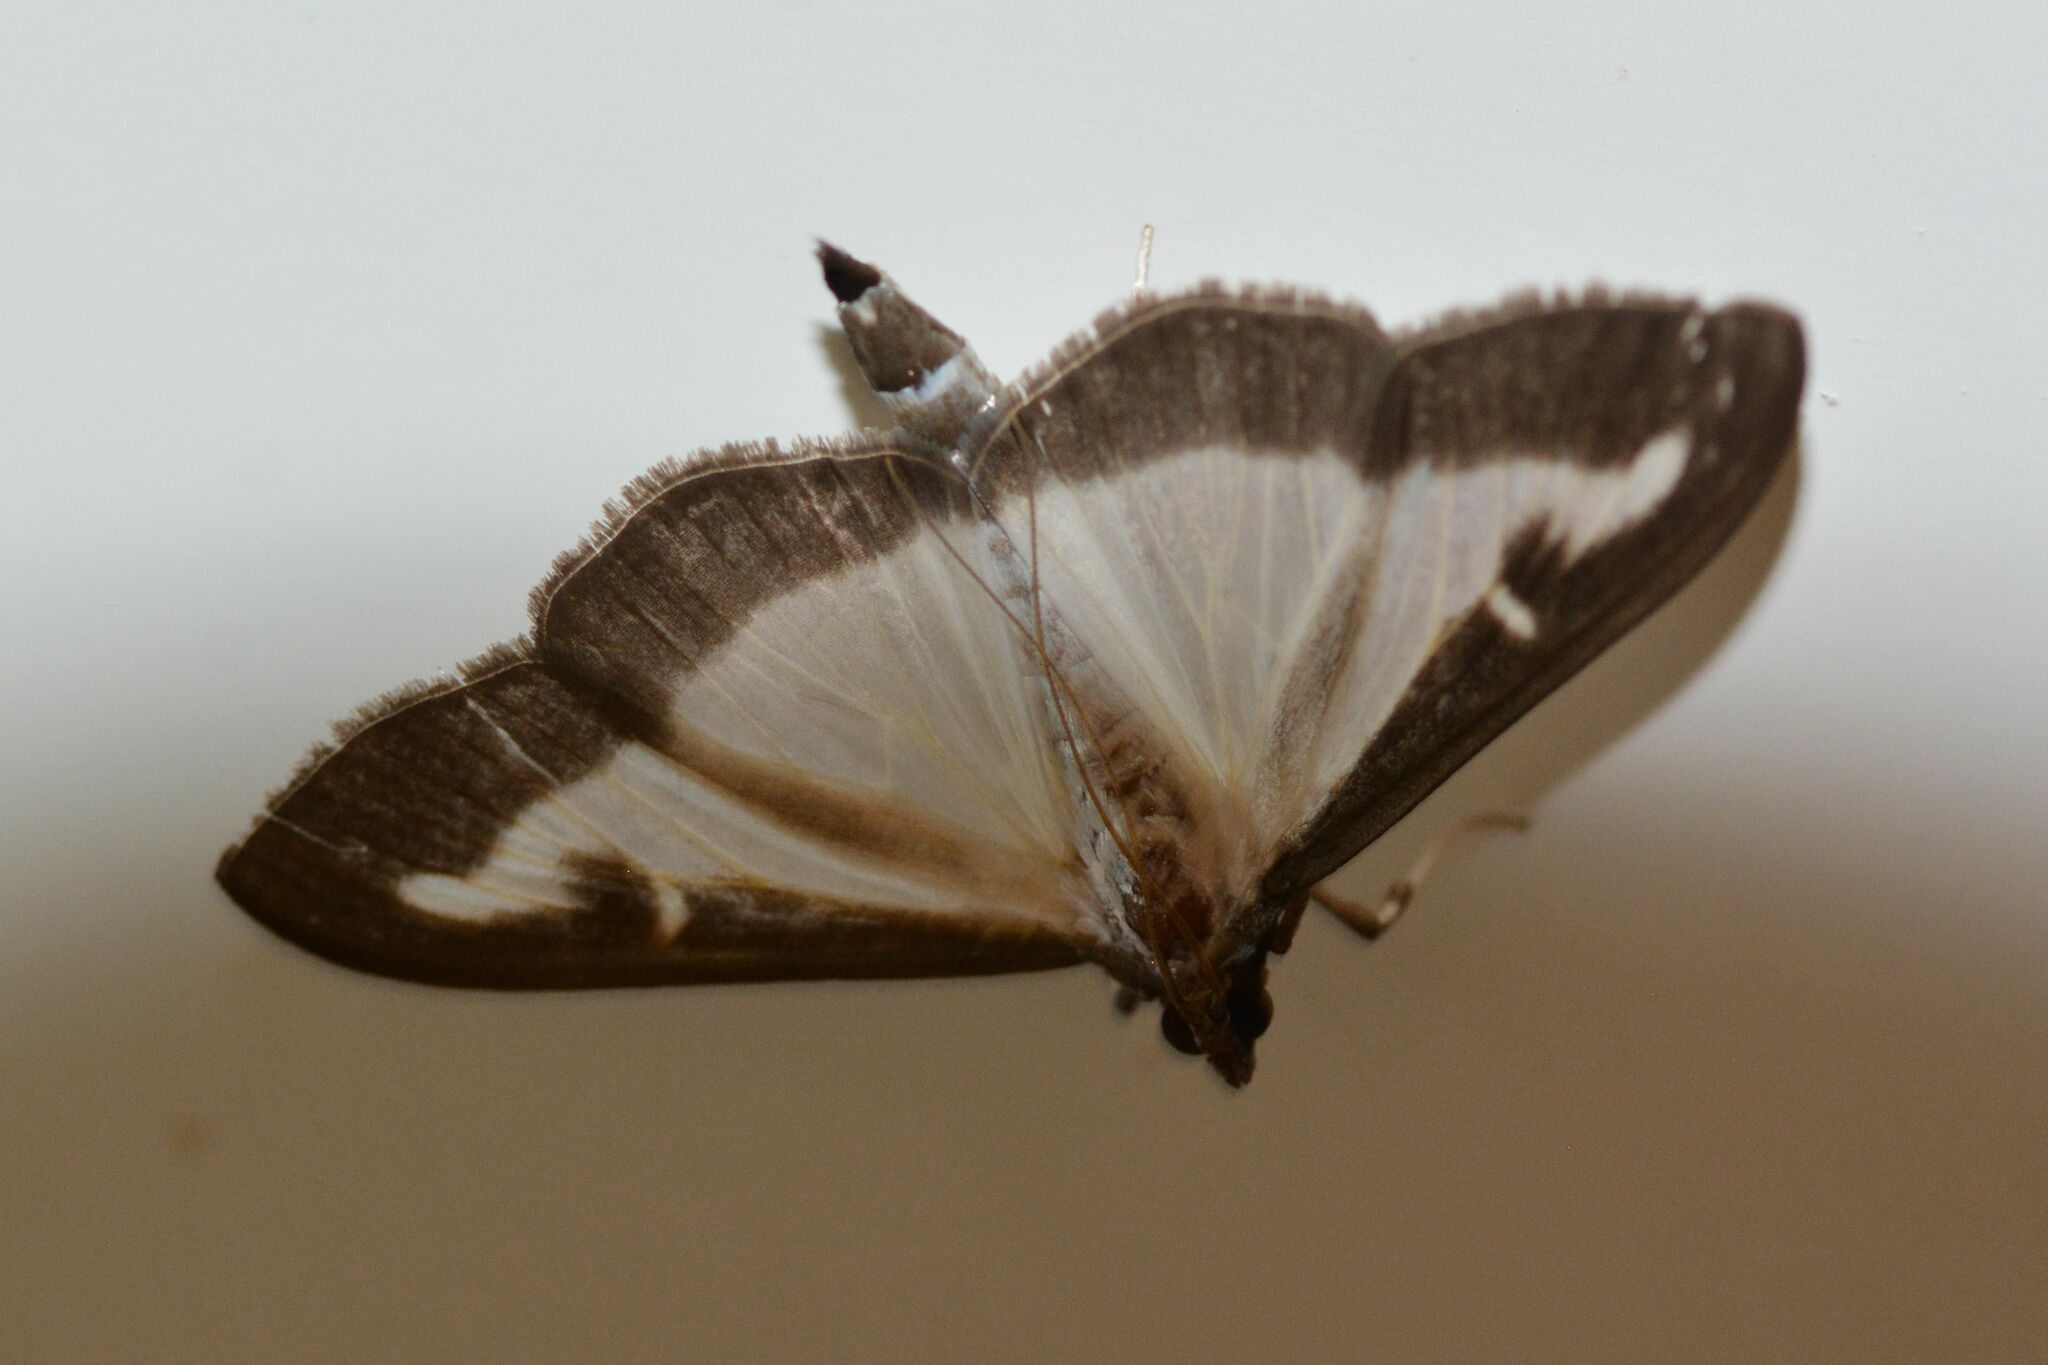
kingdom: Animalia
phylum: Arthropoda
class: Insecta
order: Lepidoptera
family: Crambidae
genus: Cydalima
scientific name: Cydalima perspectalis
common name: Box tree moth
